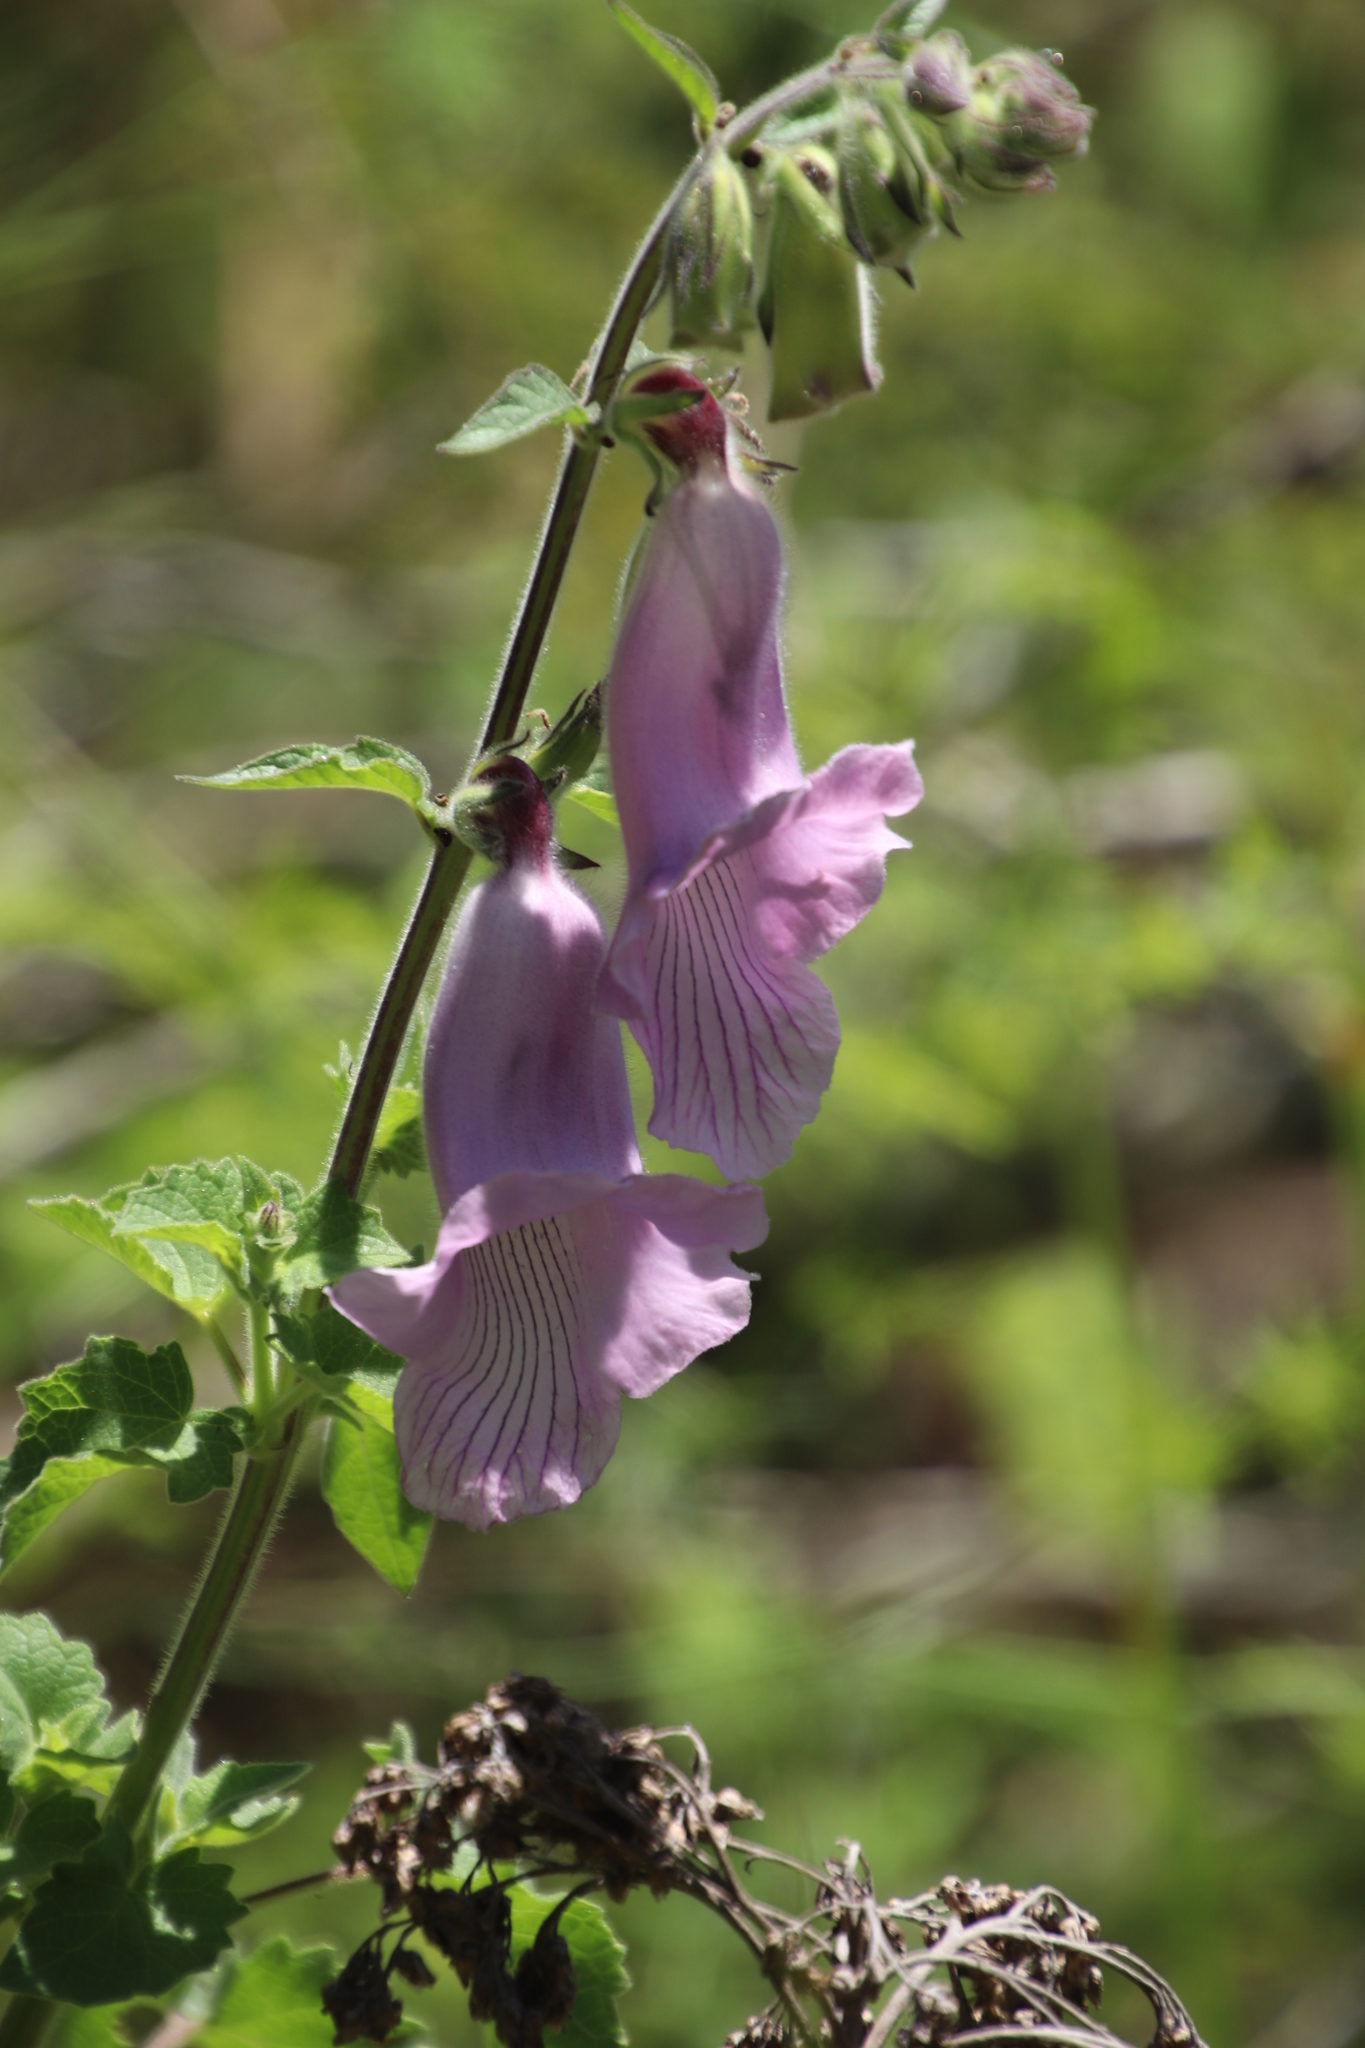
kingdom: Plantae
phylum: Tracheophyta
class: Magnoliopsida
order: Lamiales
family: Pedaliaceae
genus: Sesamum
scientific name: Sesamum trilobum
